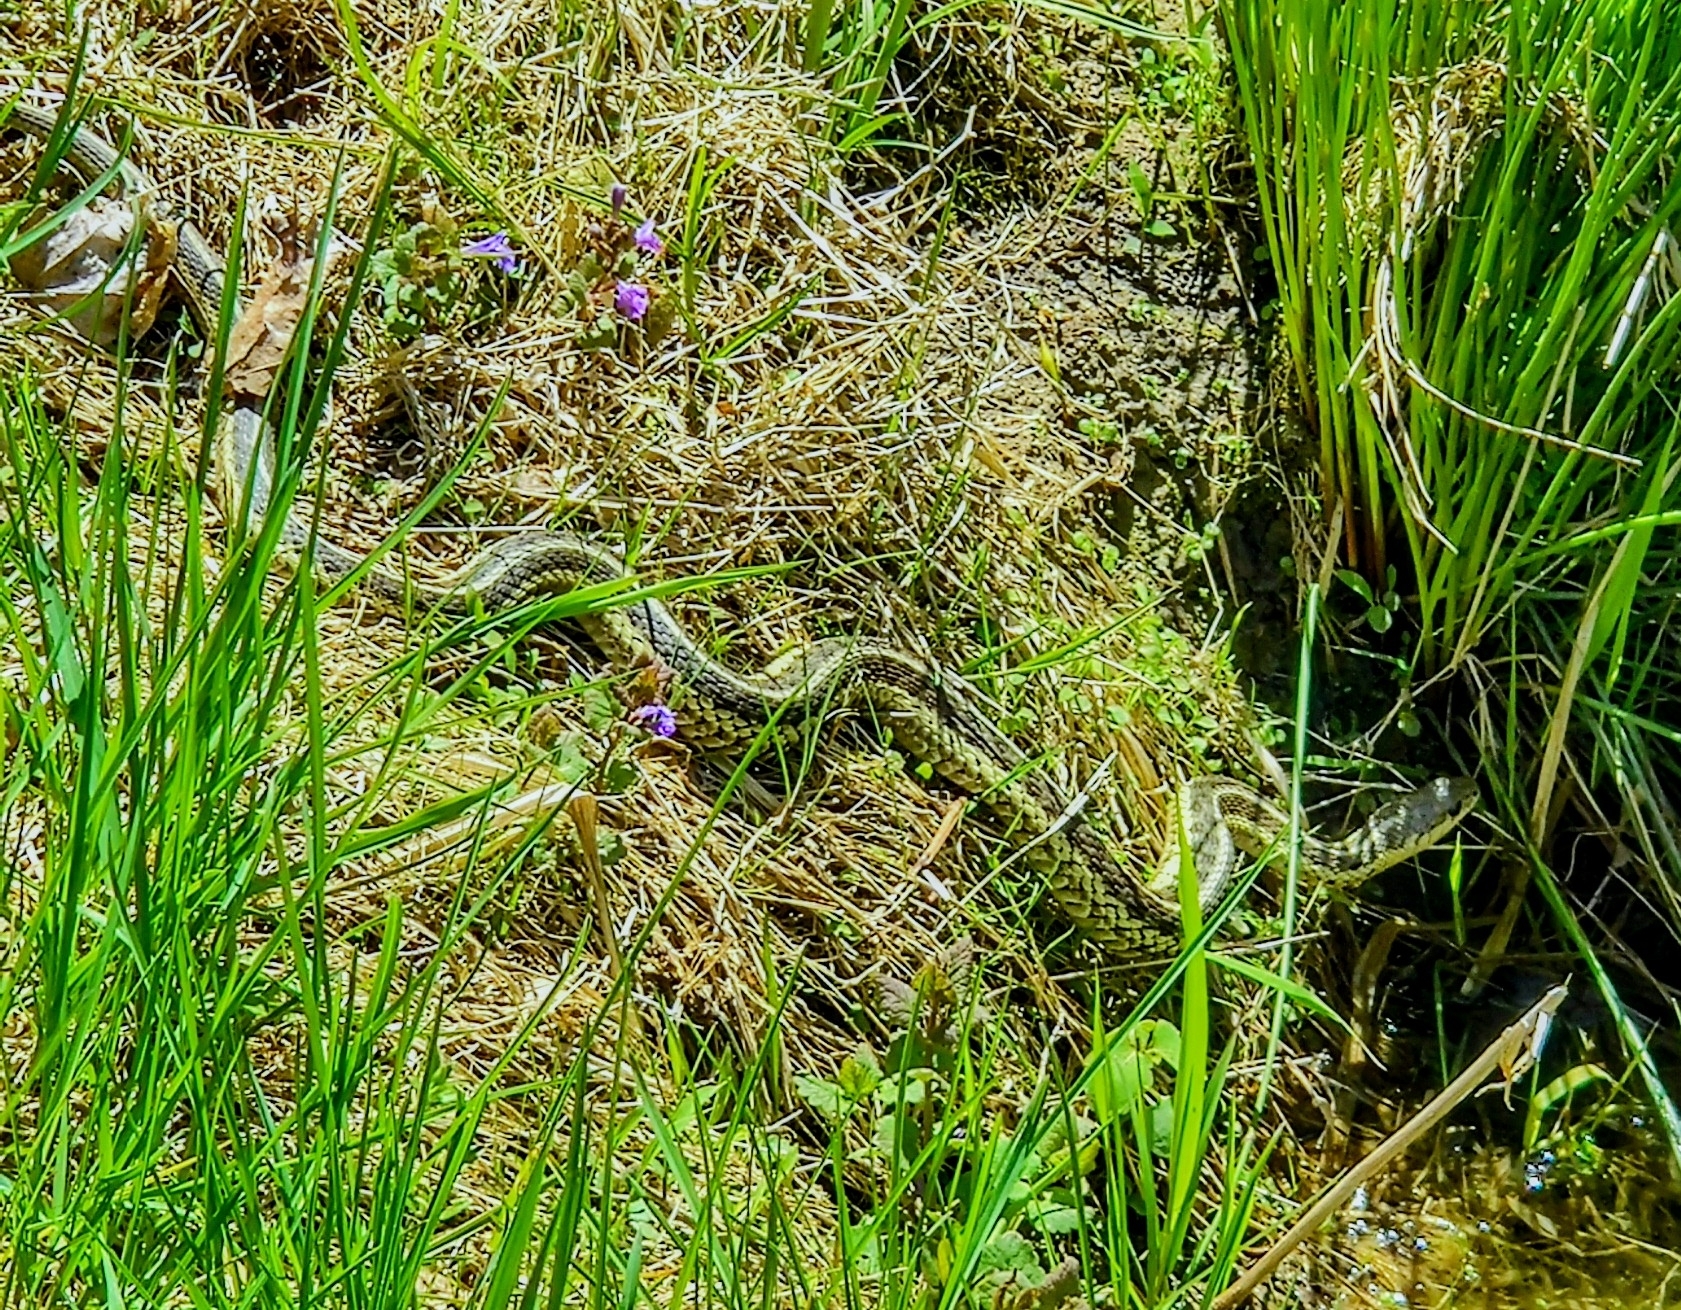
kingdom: Animalia
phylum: Chordata
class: Squamata
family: Colubridae
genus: Thamnophis
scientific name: Thamnophis sirtalis
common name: Common garter snake
